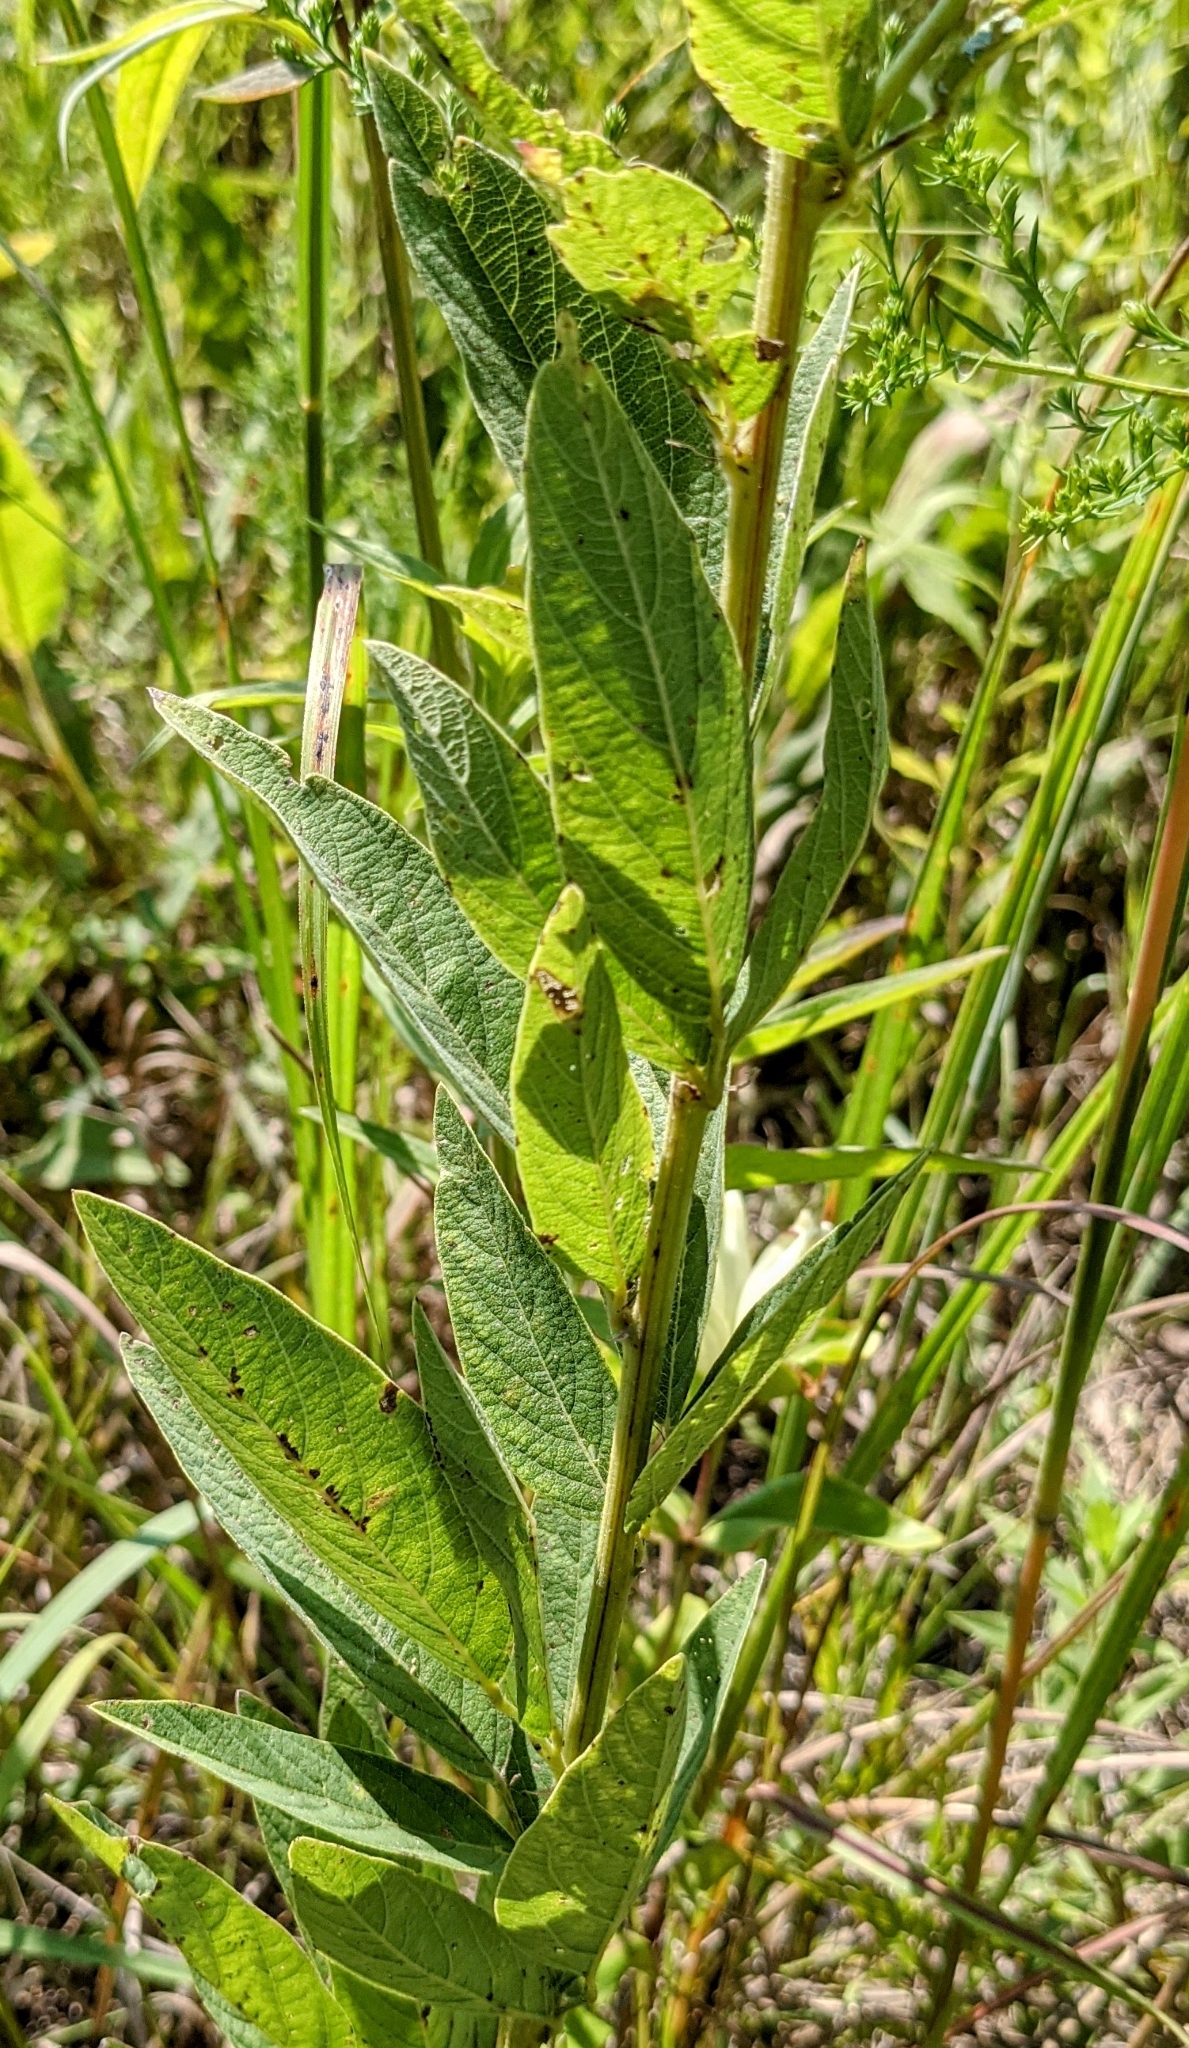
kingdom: Plantae
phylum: Tracheophyta
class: Magnoliopsida
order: Fabales
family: Fabaceae
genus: Desmodium
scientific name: Desmodium canadense
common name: Canada tick-trefoil
